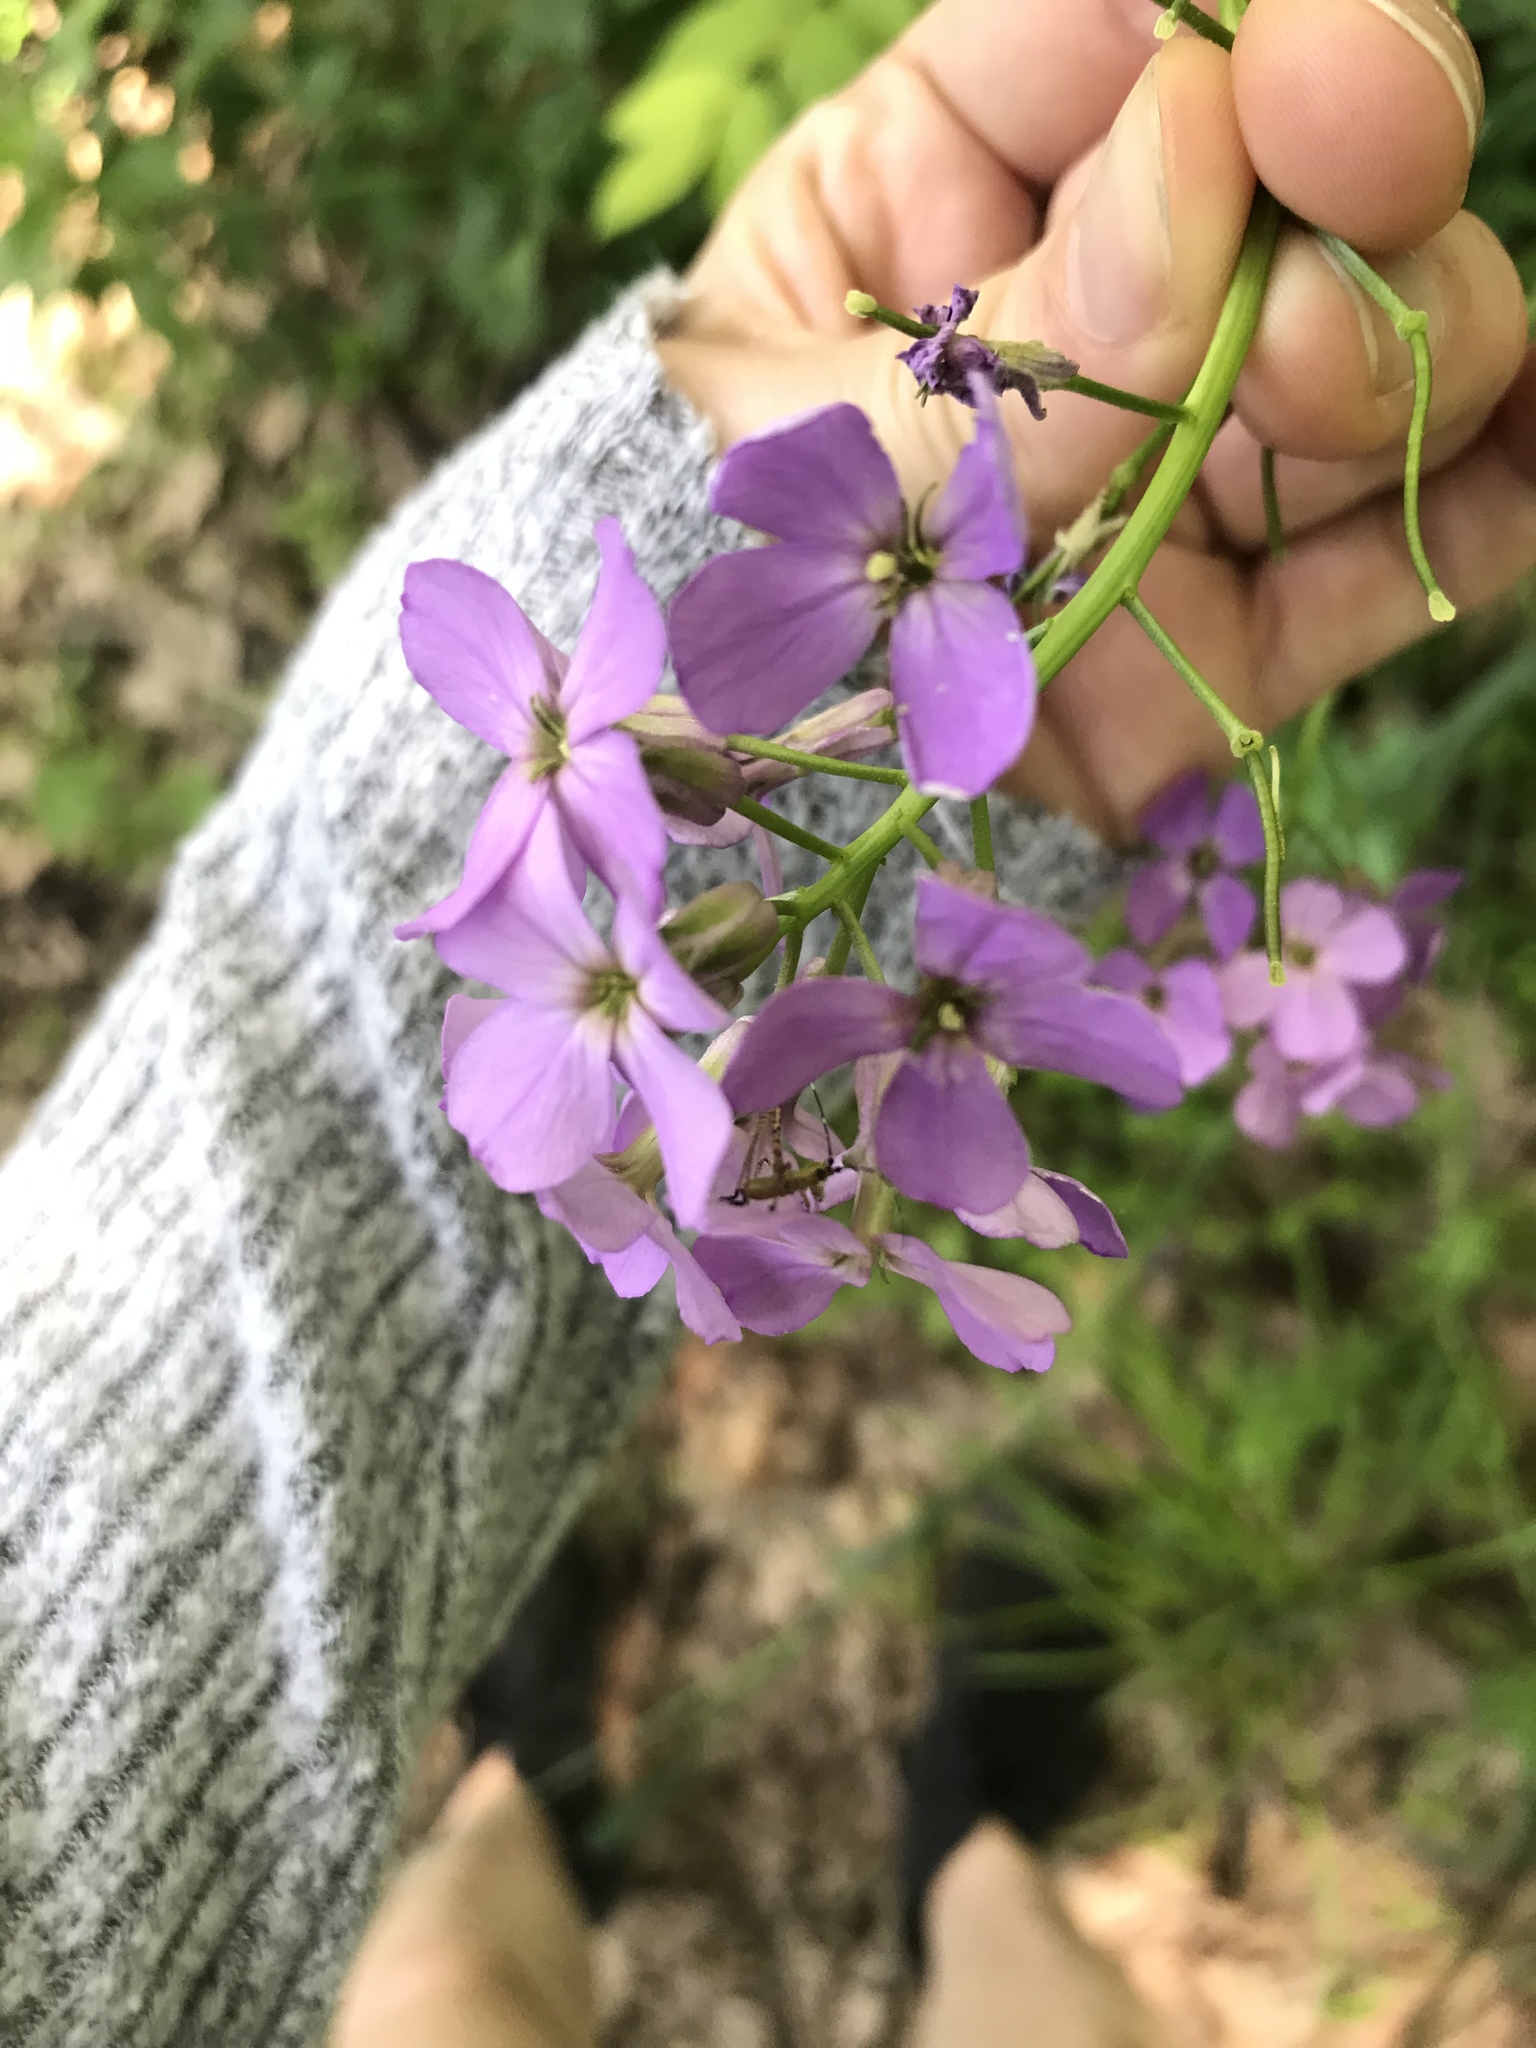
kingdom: Plantae
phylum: Tracheophyta
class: Magnoliopsida
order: Brassicales
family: Brassicaceae
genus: Hesperis
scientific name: Hesperis matronalis
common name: Dame's-violet
